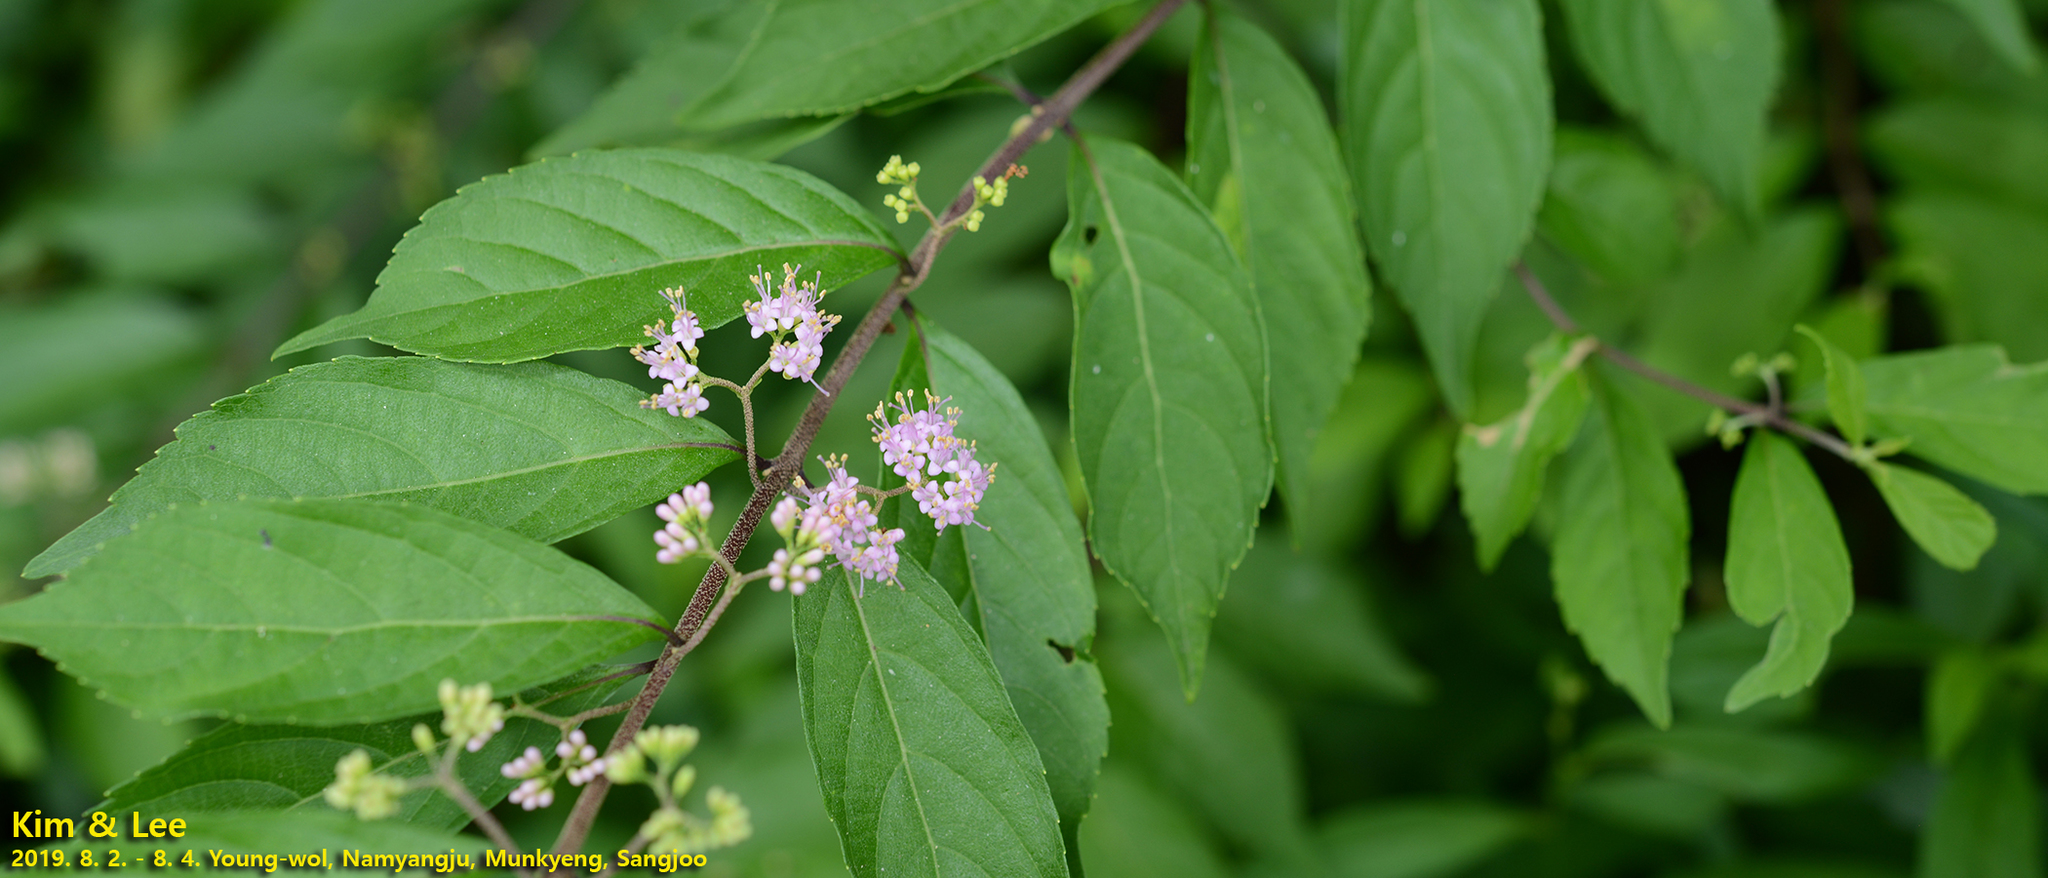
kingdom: Plantae
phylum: Tracheophyta
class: Magnoliopsida
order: Lamiales
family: Lamiaceae
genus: Callicarpa
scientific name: Callicarpa japonica
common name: Japanese beauty-berry
